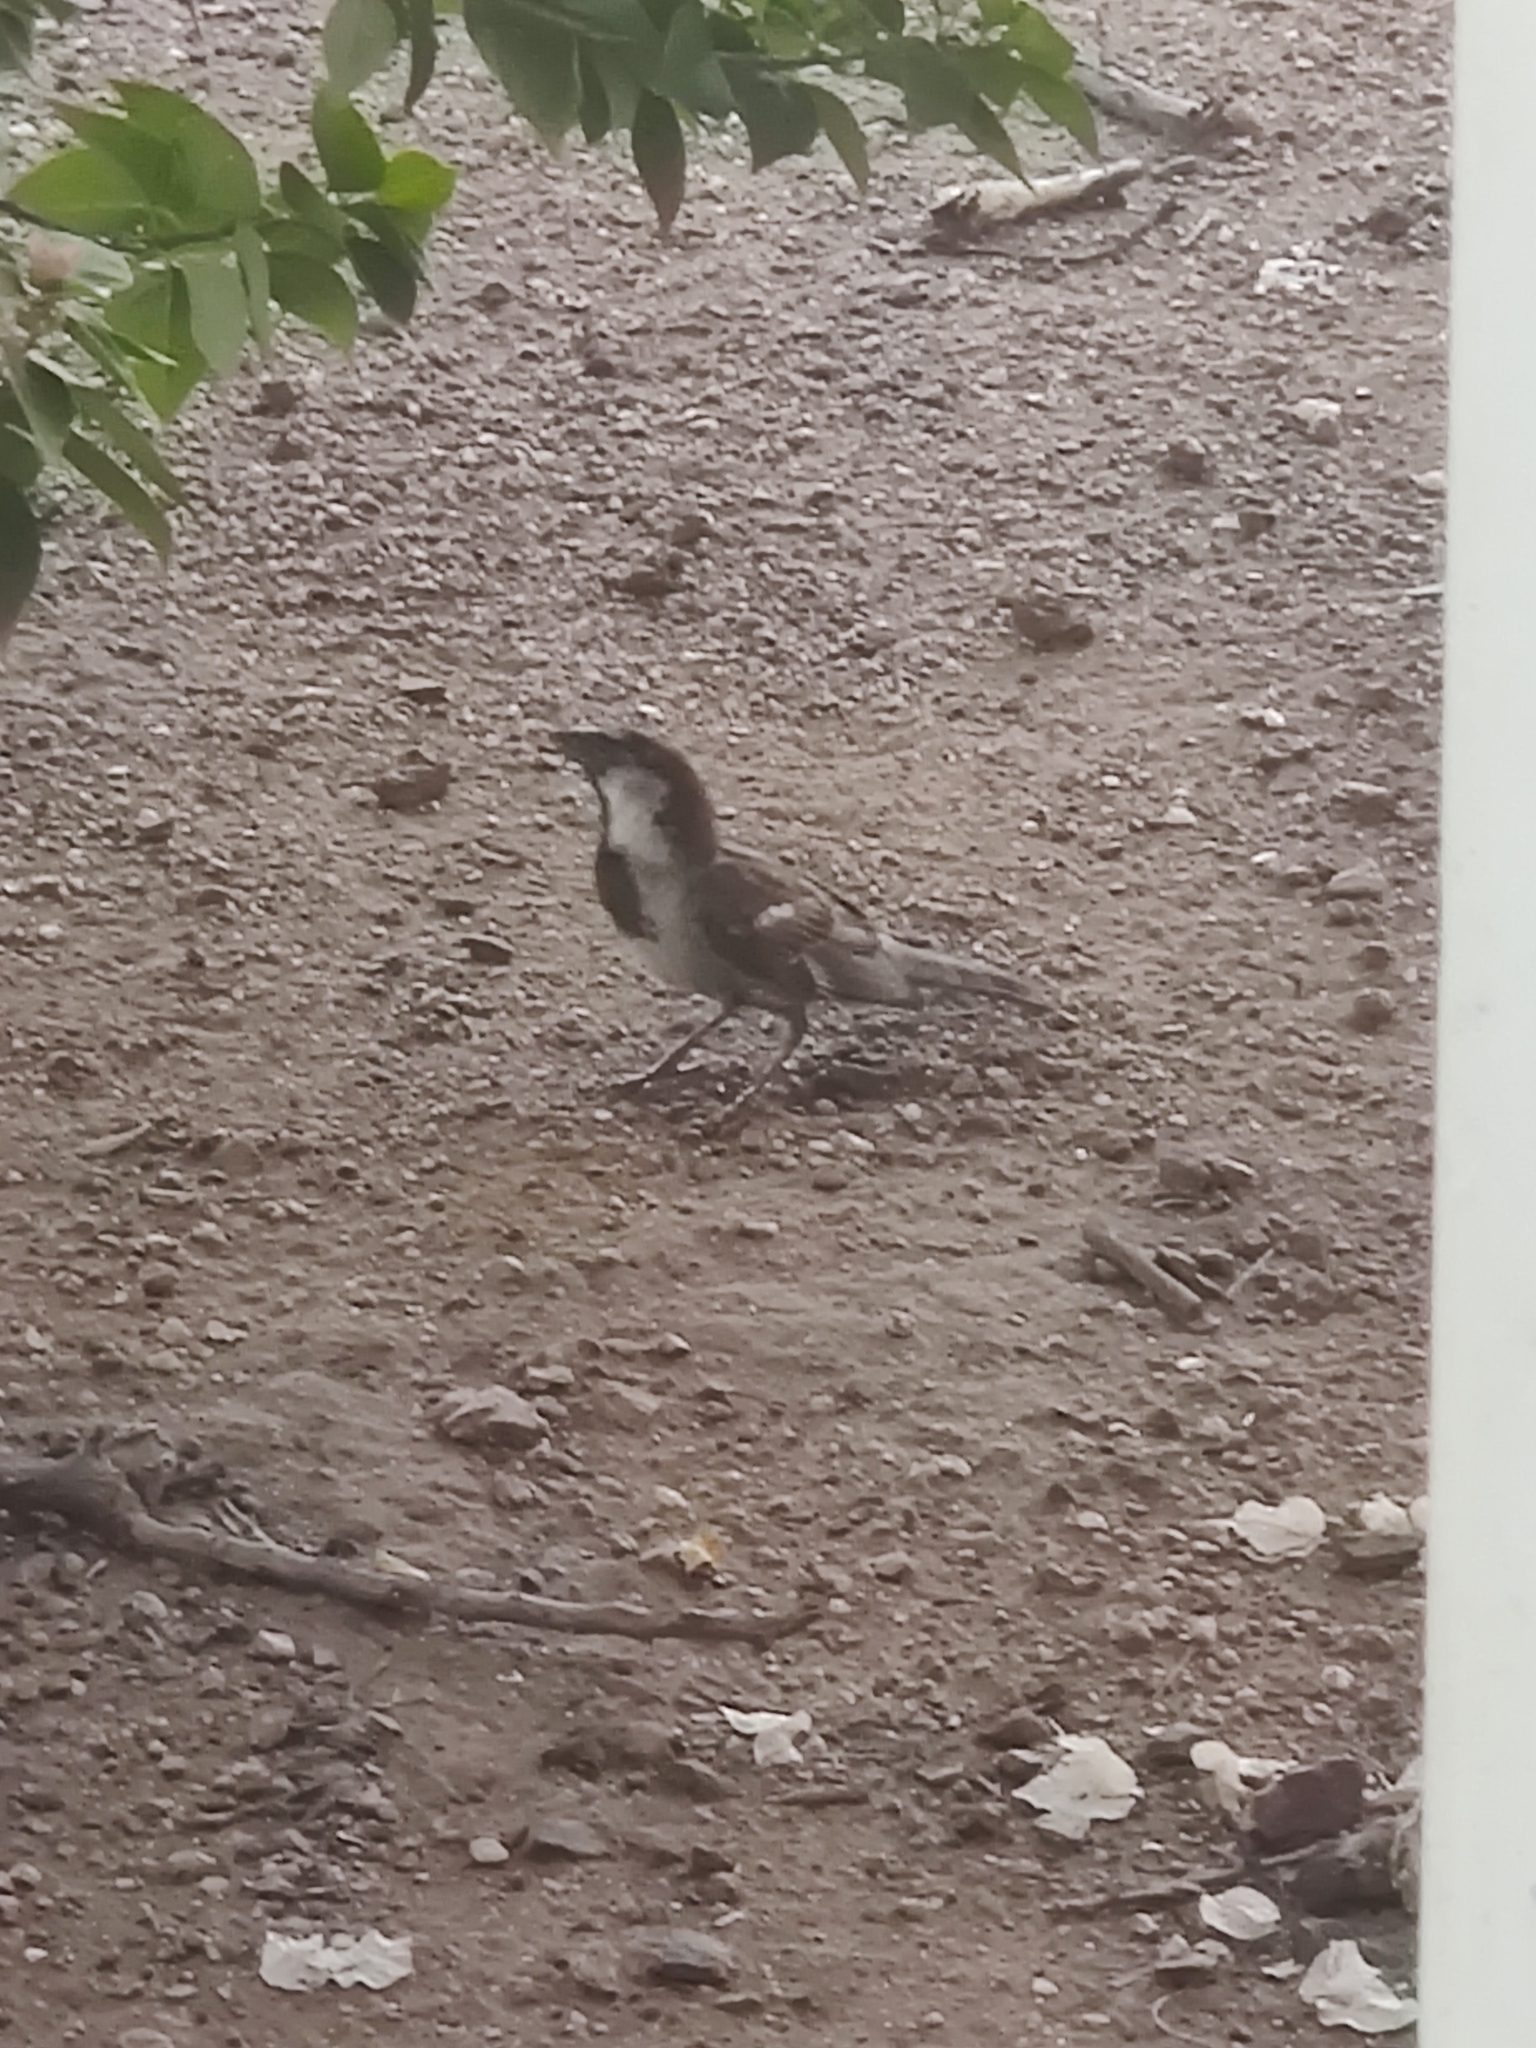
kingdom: Animalia
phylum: Chordata
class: Aves
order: Passeriformes
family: Passeridae
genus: Passer
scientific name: Passer domesticus
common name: House sparrow
